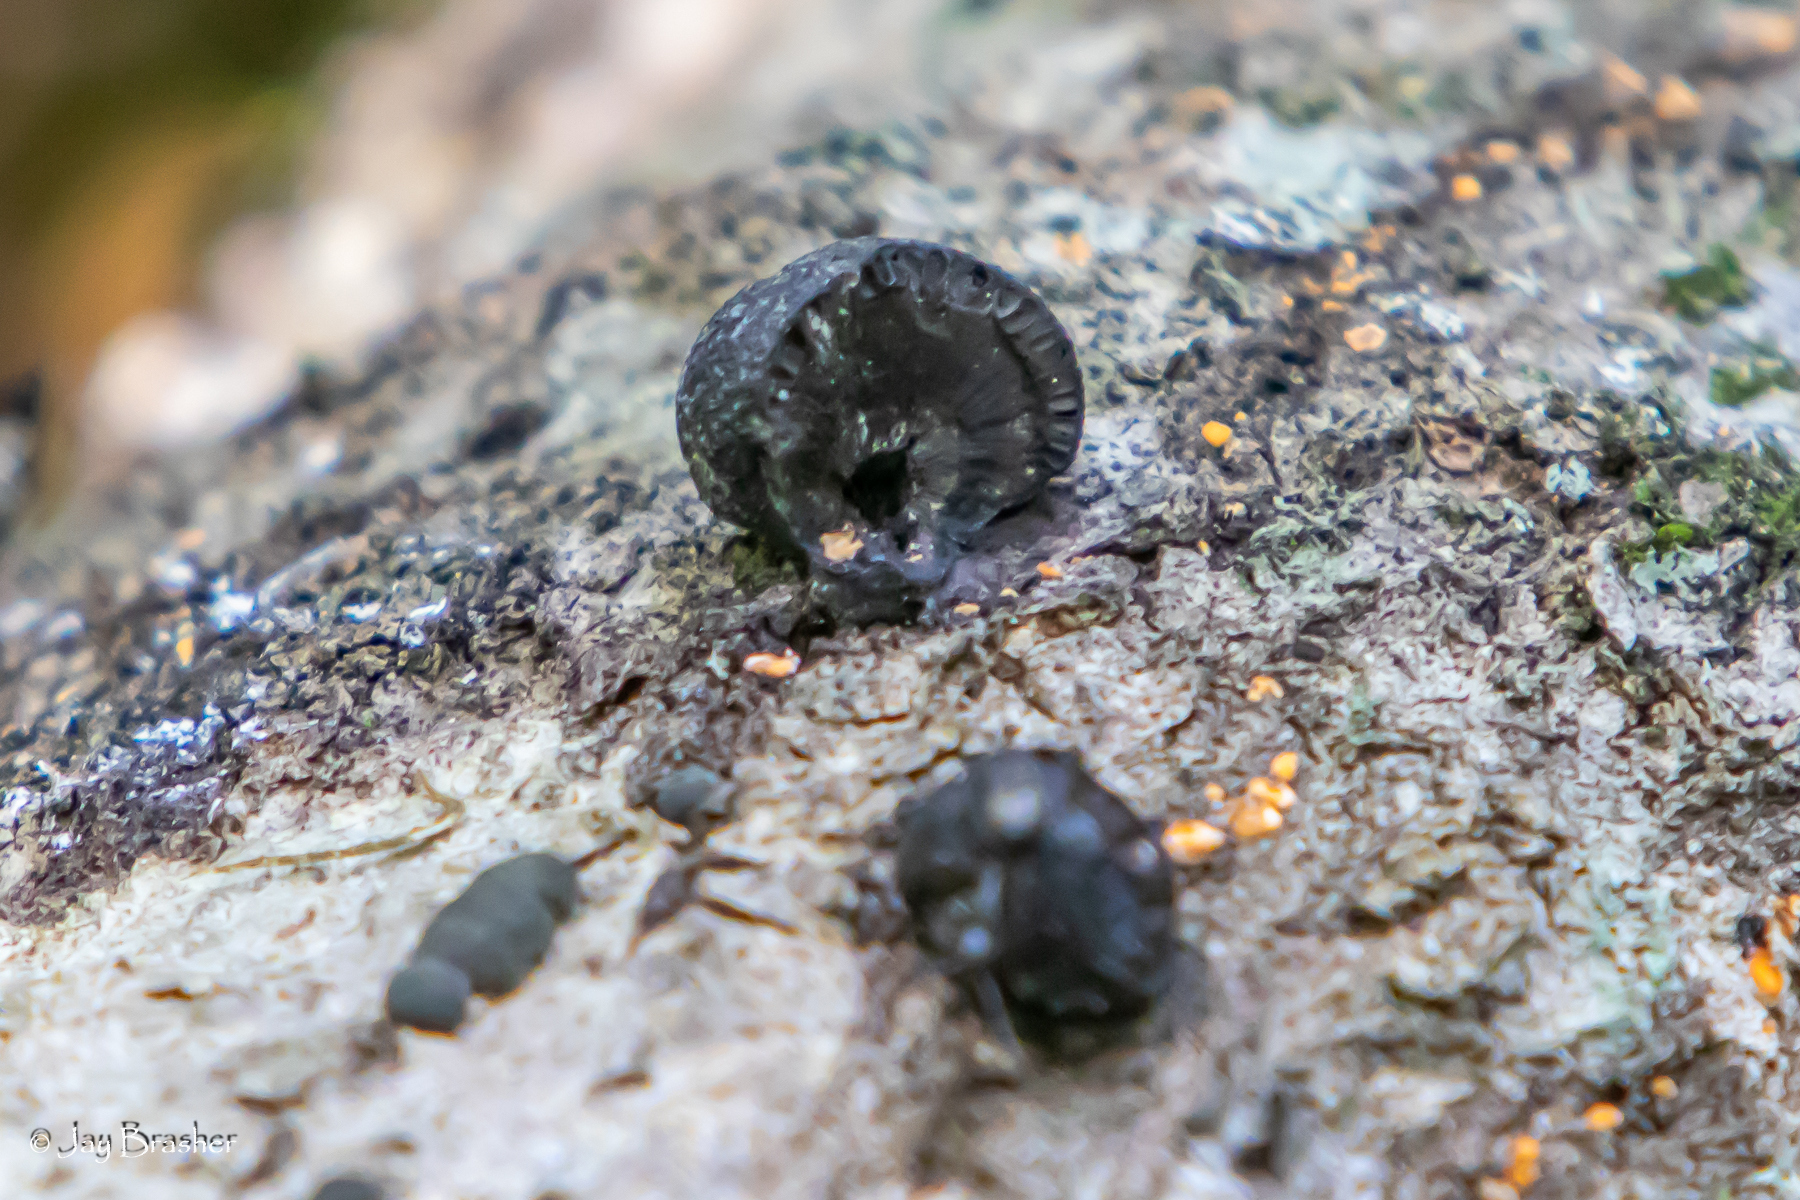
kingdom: Fungi
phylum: Ascomycota
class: Sordariomycetes
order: Xylariales
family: Hypoxylaceae
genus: Annulohypoxylon
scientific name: Annulohypoxylon thouarsianum
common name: Cramp balls
